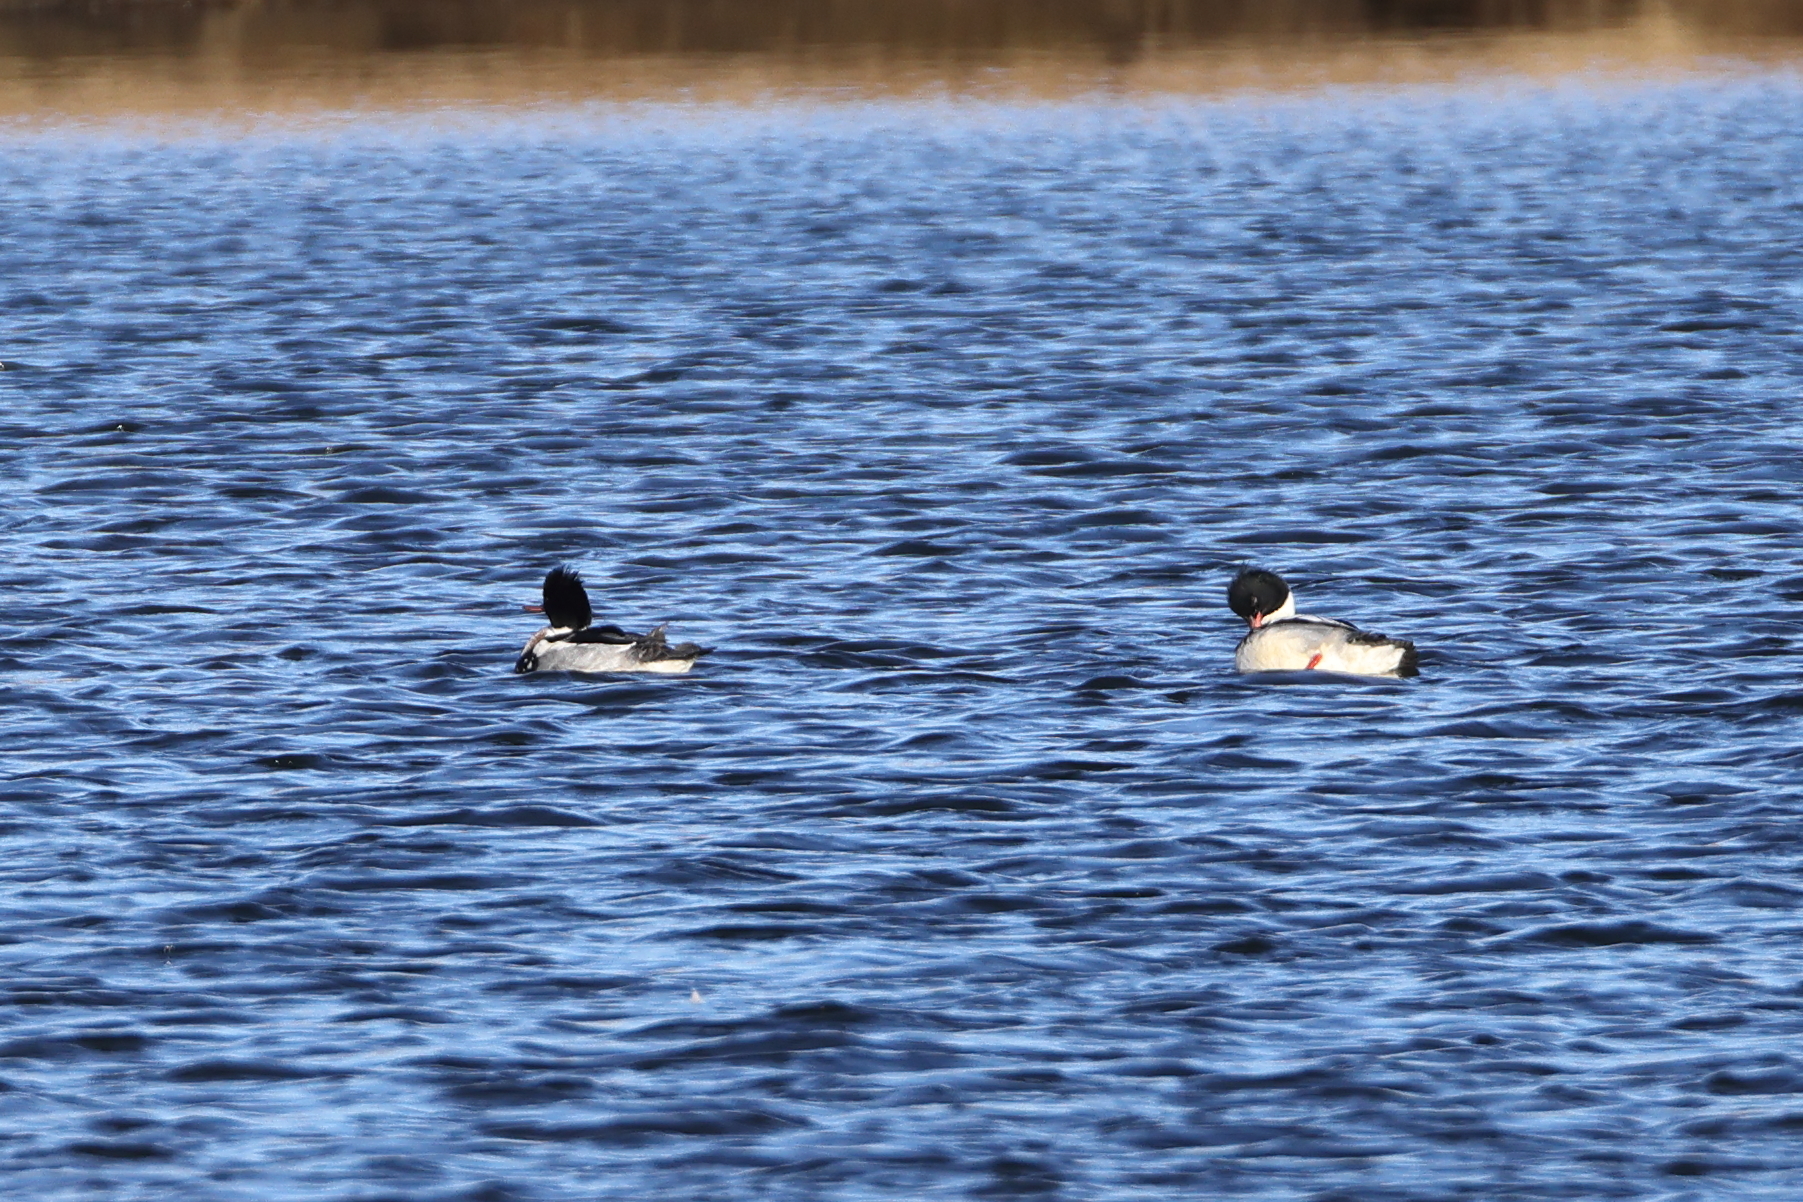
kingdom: Animalia
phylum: Chordata
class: Aves
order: Anseriformes
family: Anatidae
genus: Mergus
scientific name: Mergus serrator
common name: Red-breasted merganser
